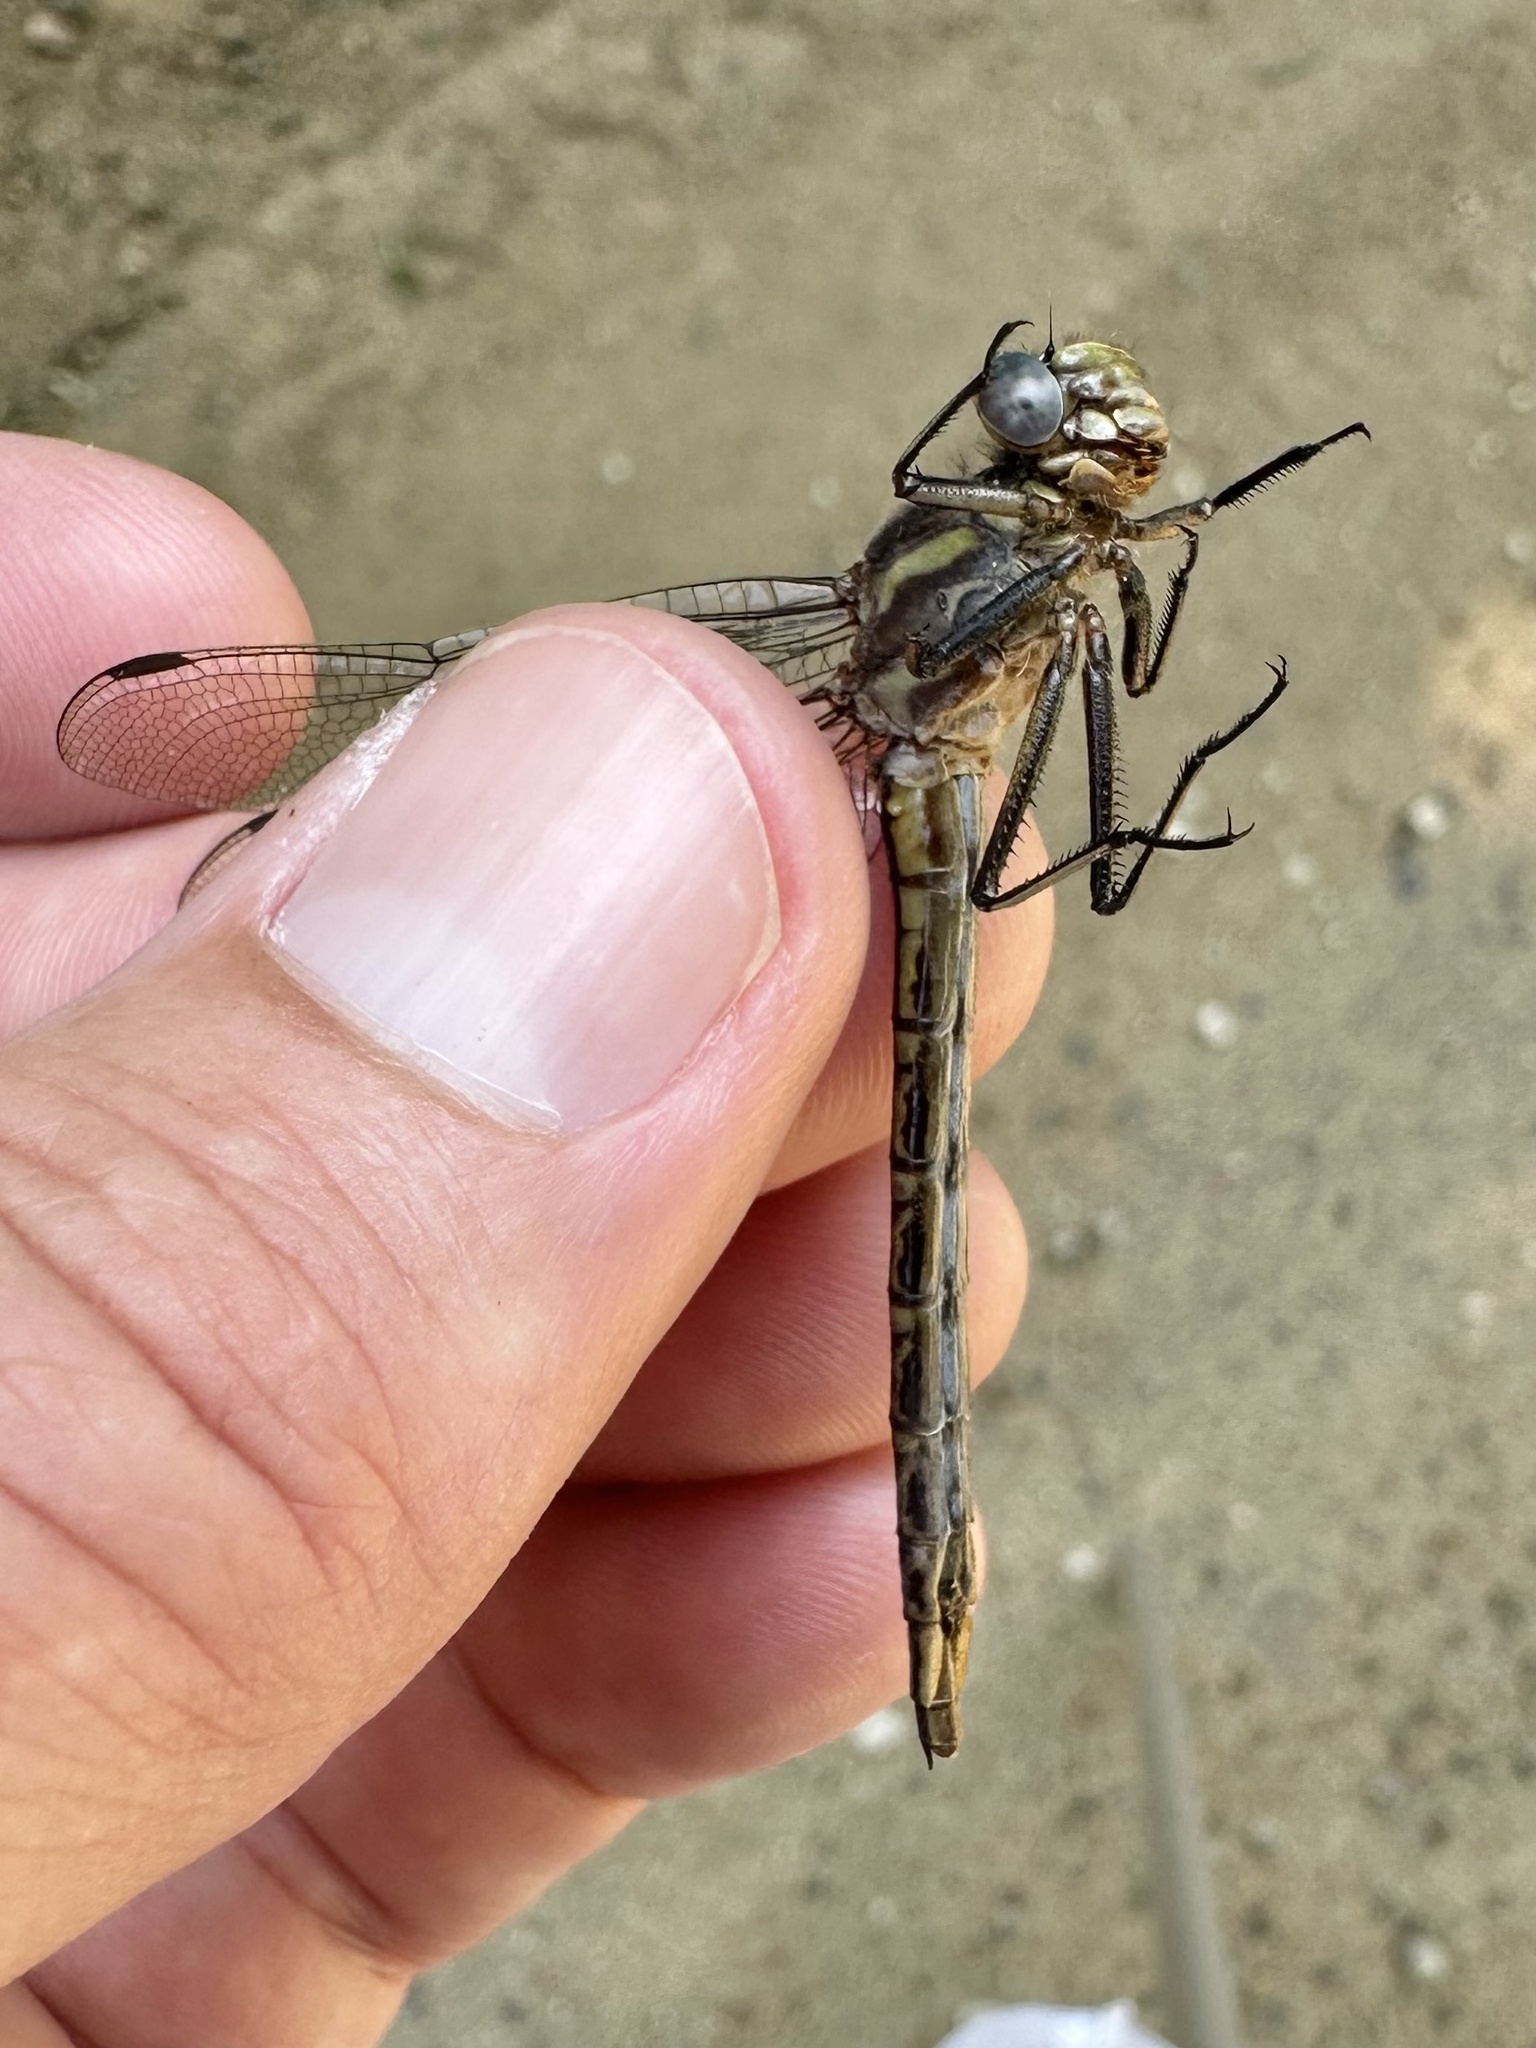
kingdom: Animalia
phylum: Arthropoda
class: Insecta
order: Odonata
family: Gomphidae
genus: Phanogomphus
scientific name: Phanogomphus spicatus
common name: Dusky clubtail
